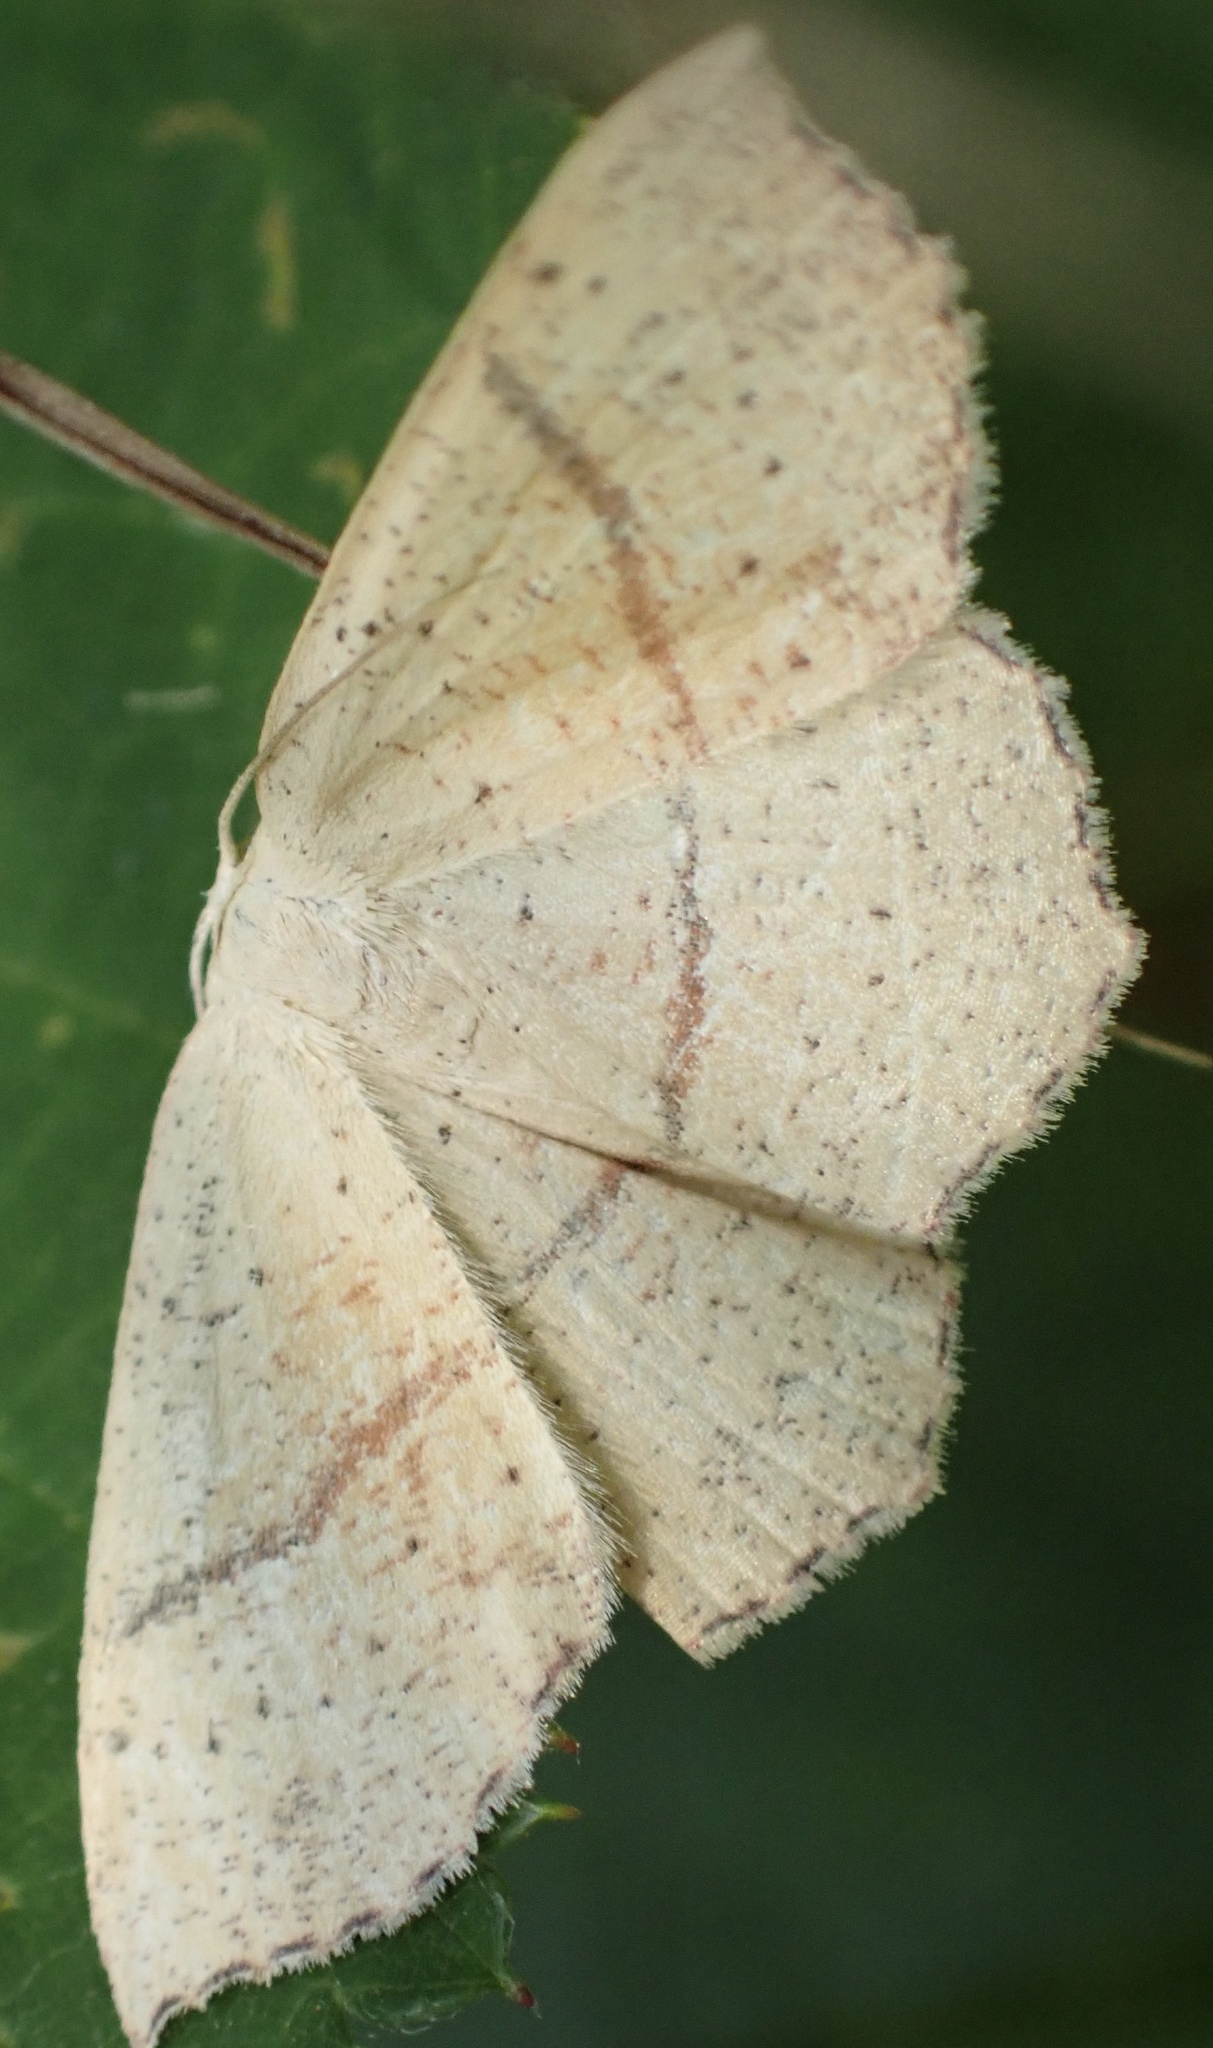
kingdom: Animalia
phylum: Arthropoda
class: Insecta
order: Lepidoptera
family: Geometridae
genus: Cyclophora
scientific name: Cyclophora punctaria
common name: Maiden's blush
